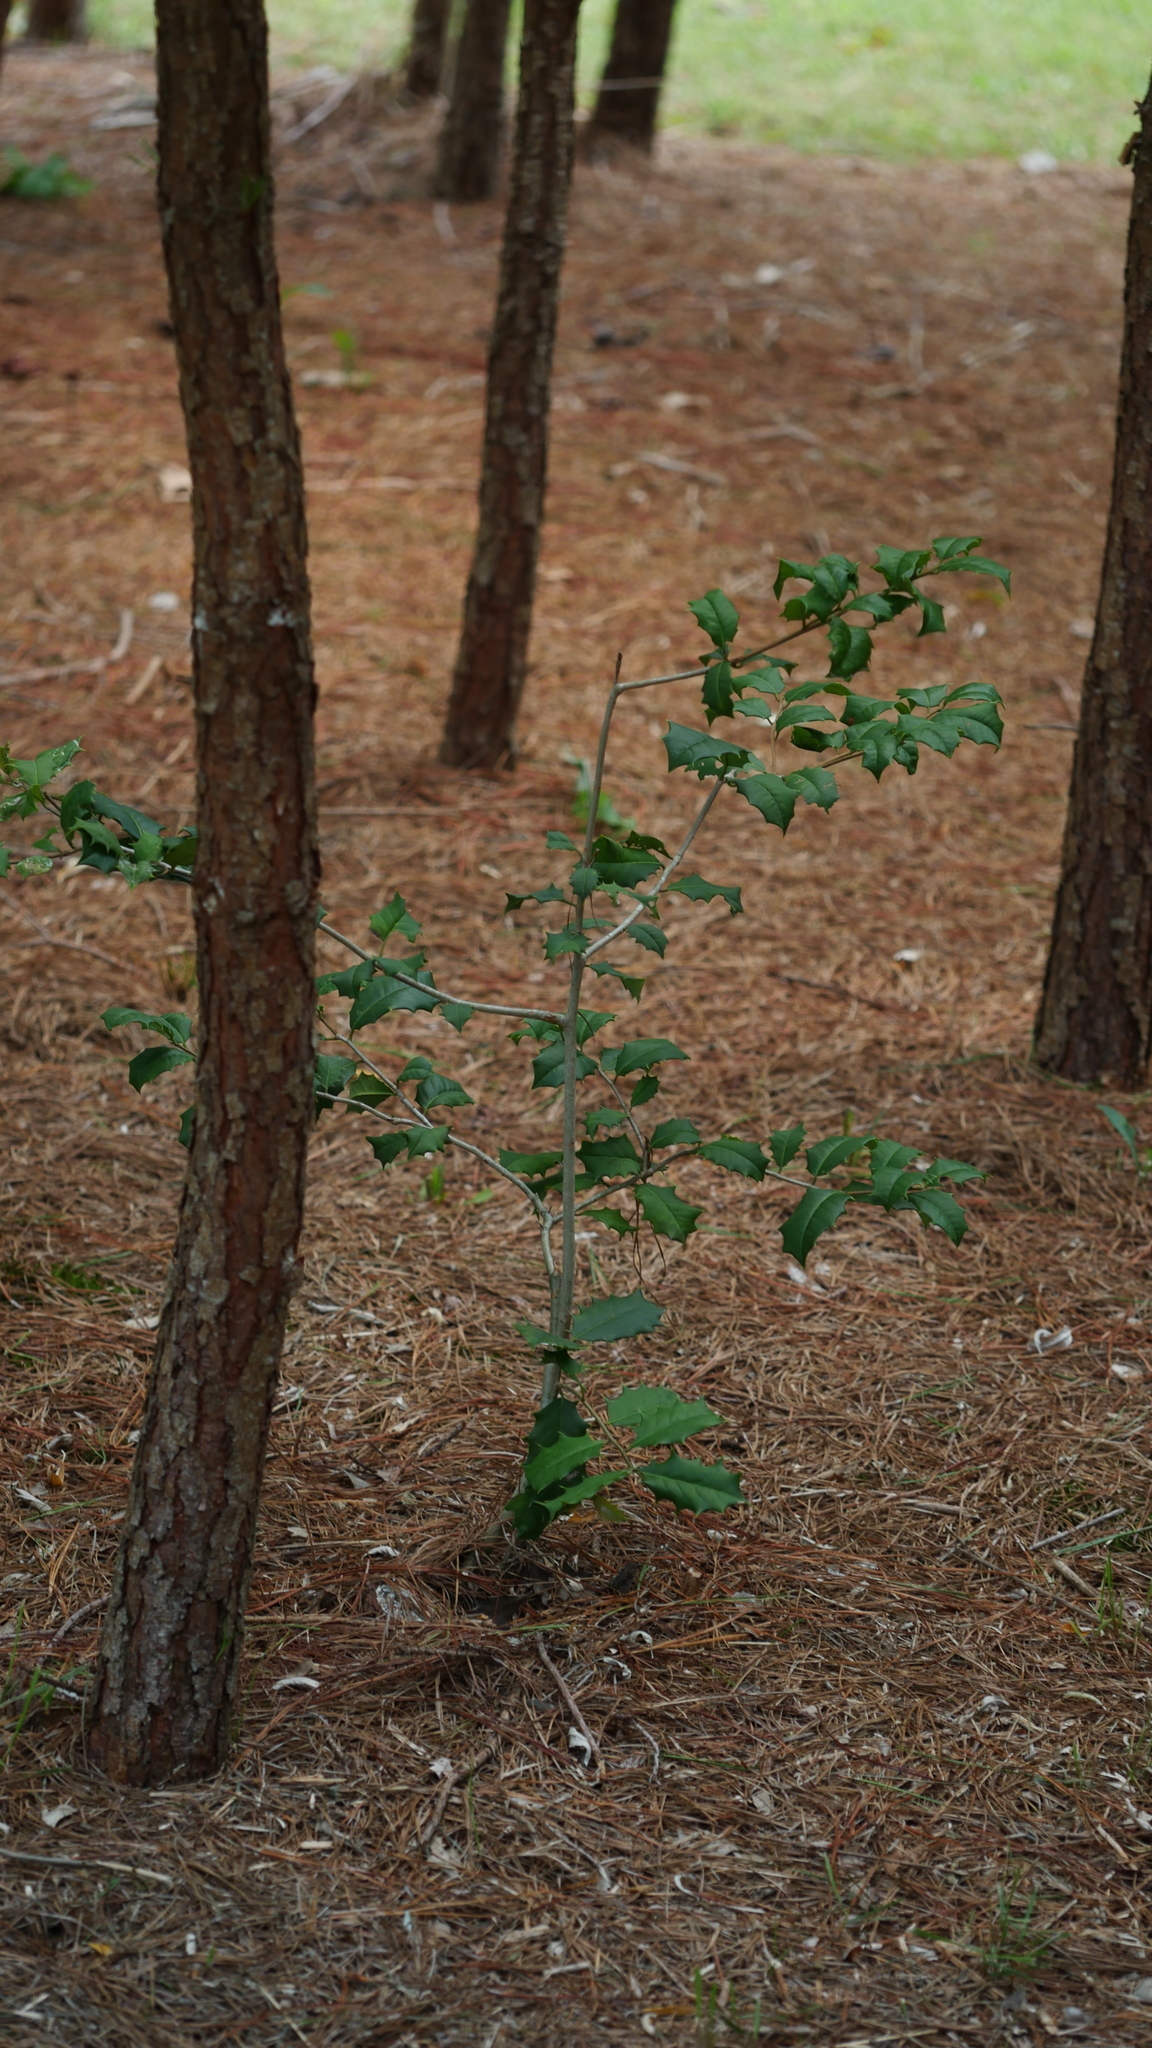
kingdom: Plantae
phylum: Tracheophyta
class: Magnoliopsida
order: Aquifoliales
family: Aquifoliaceae
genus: Ilex
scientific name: Ilex opaca
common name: American holly
